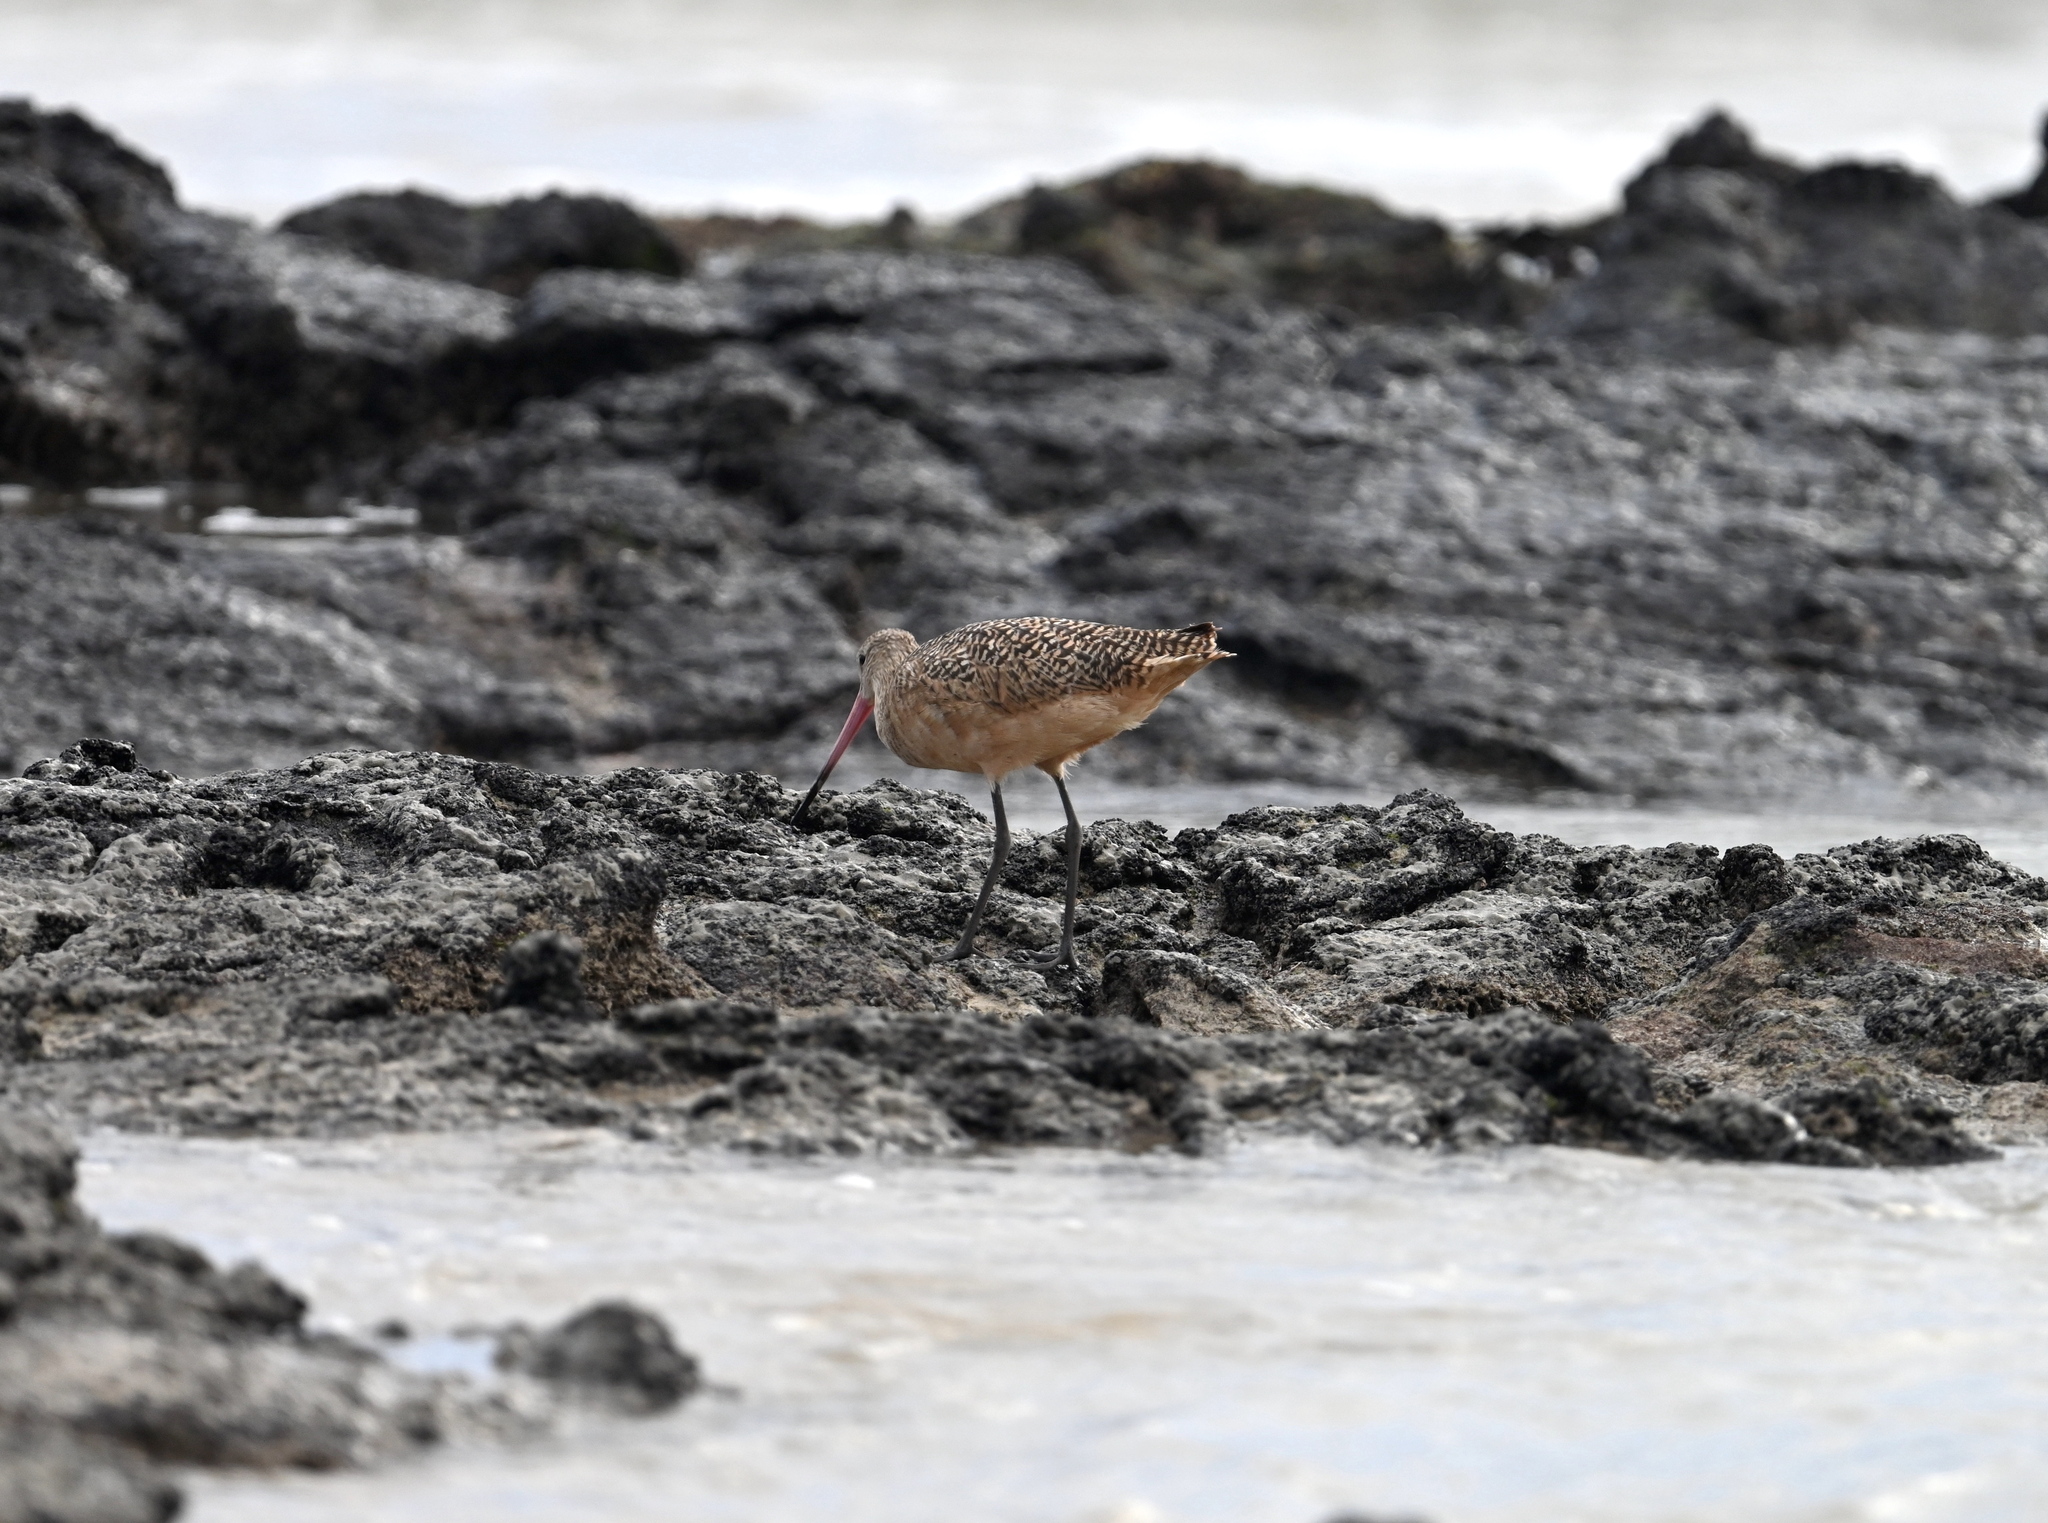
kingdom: Animalia
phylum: Chordata
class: Aves
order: Charadriiformes
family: Scolopacidae
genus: Limosa
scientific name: Limosa fedoa
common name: Marbled godwit
